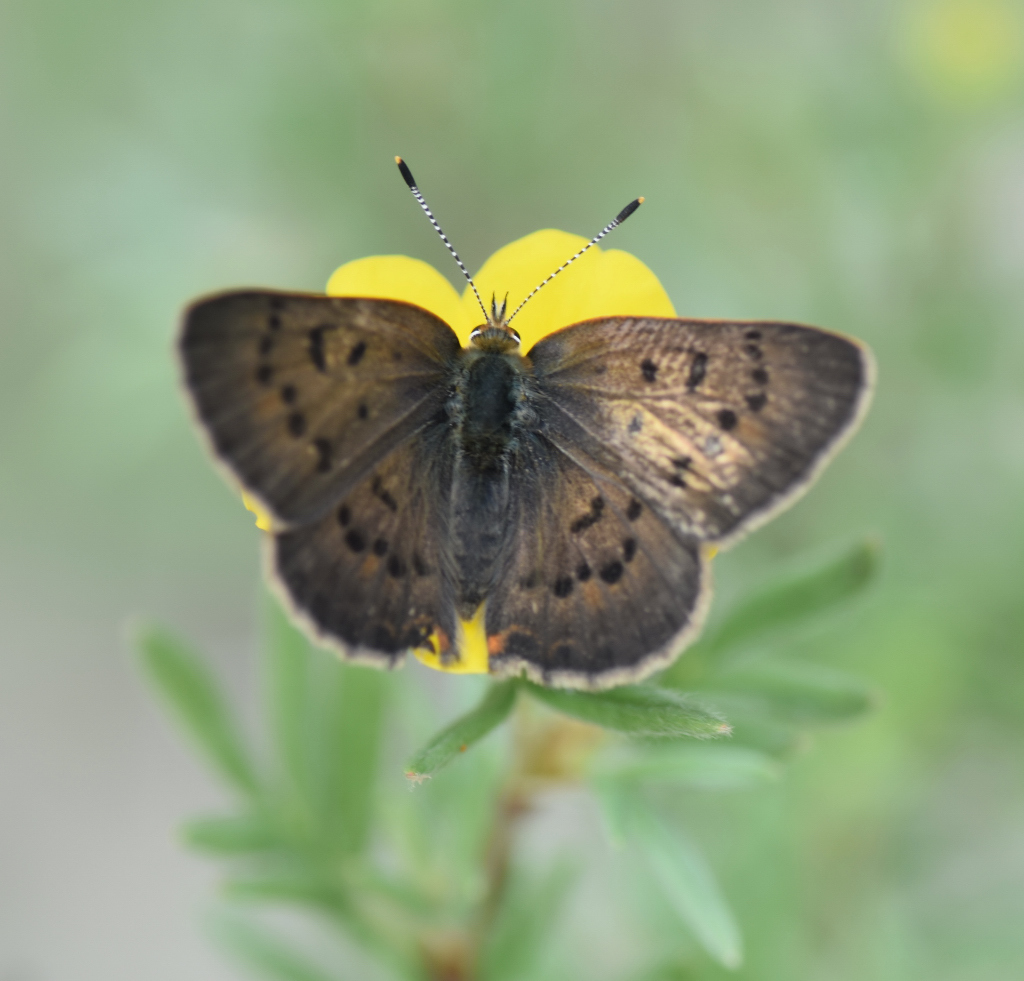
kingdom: Animalia
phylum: Arthropoda
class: Insecta
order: Lepidoptera
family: Lycaenidae
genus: Tharsalea
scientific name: Tharsalea dorcas
